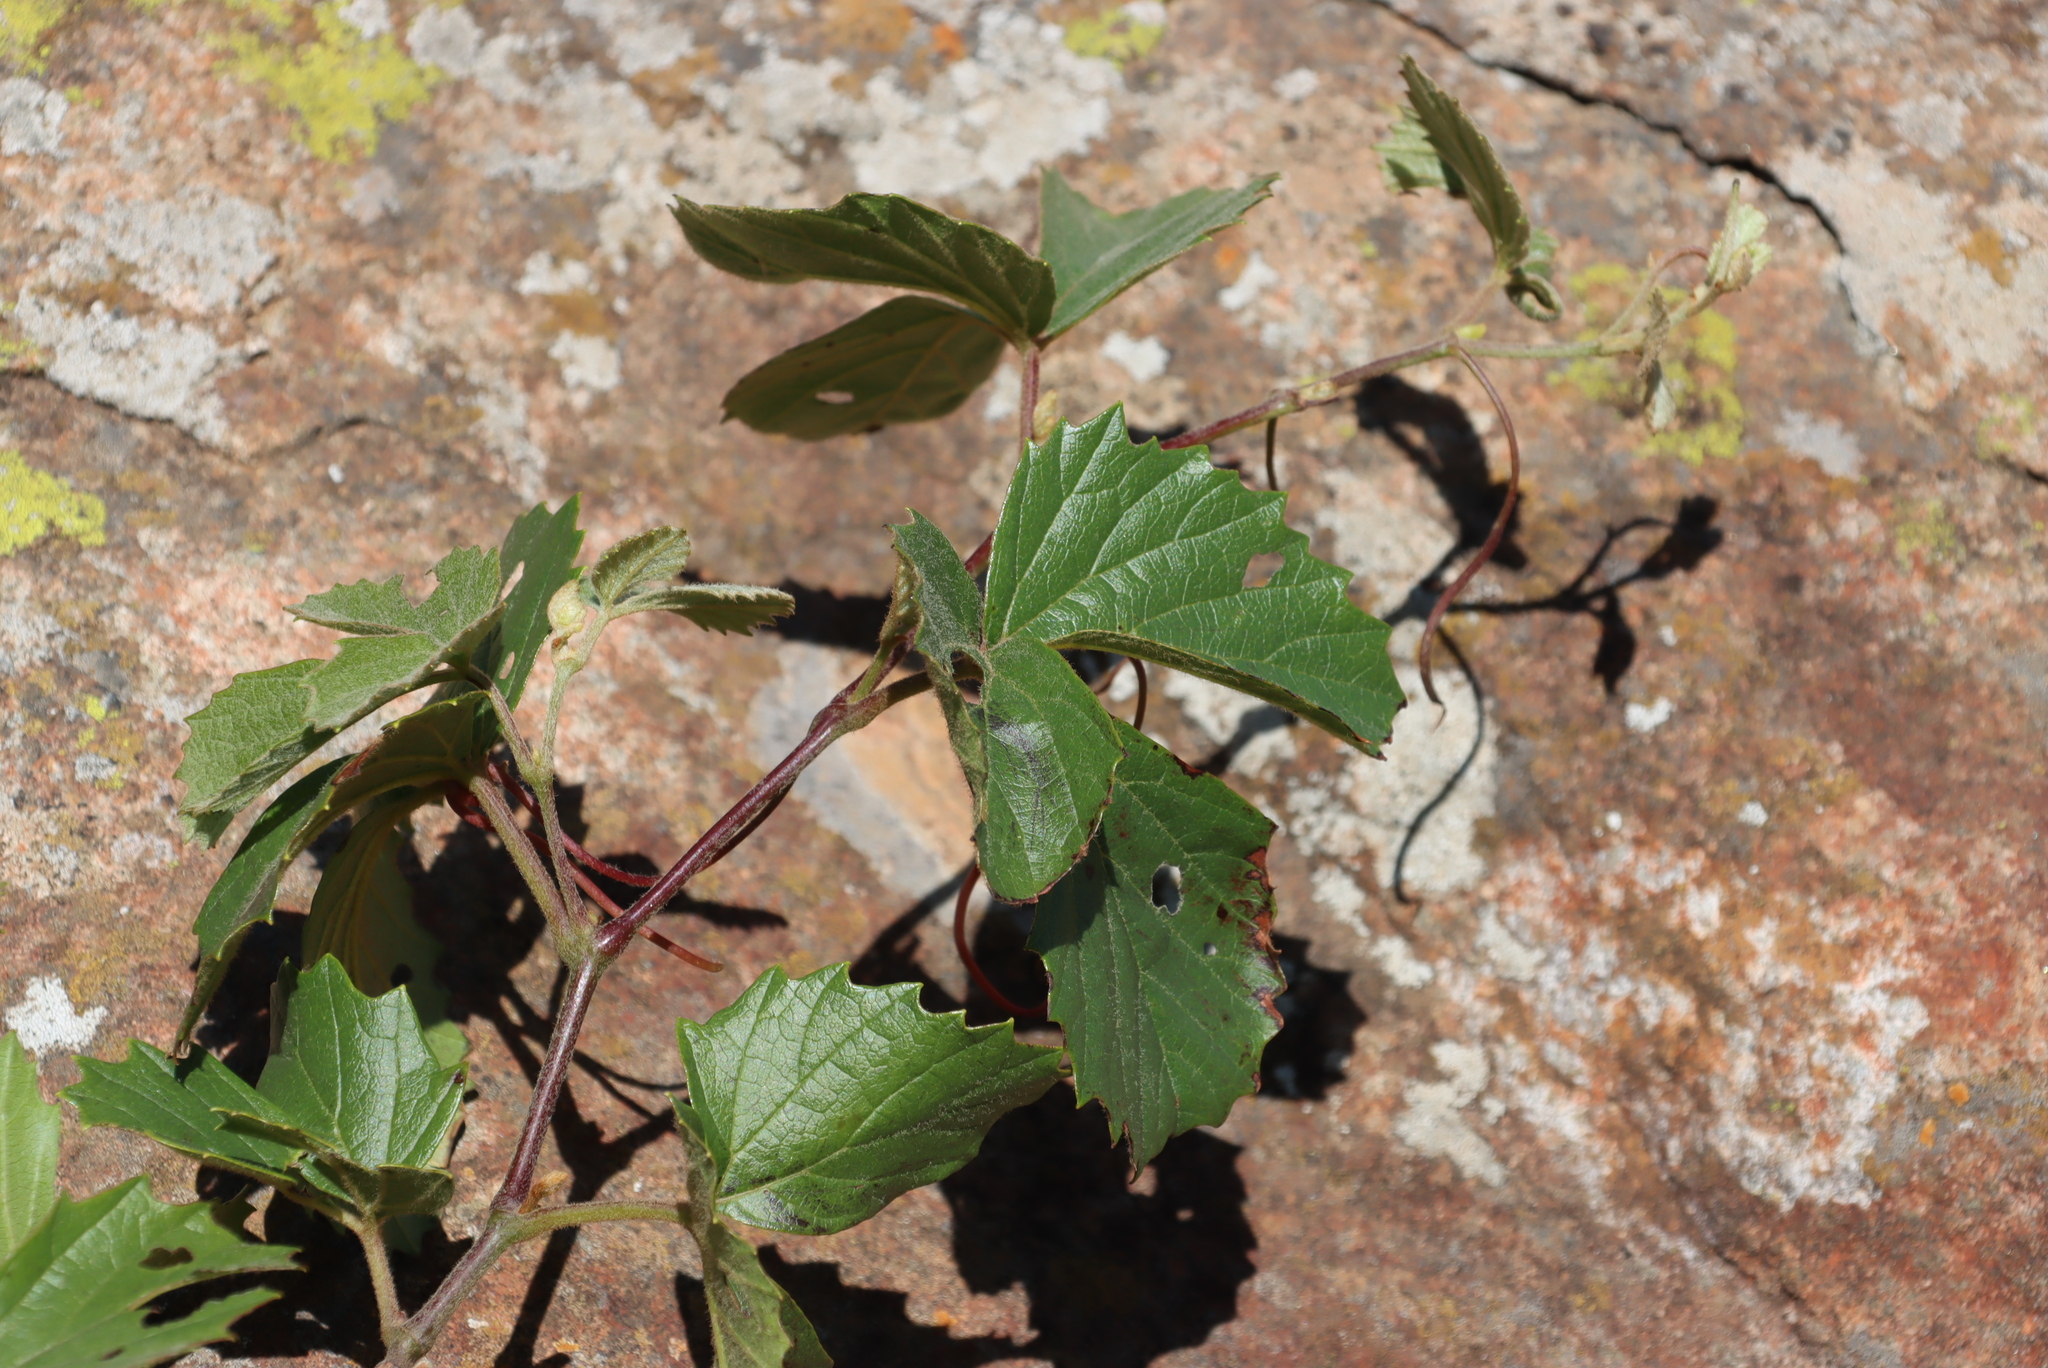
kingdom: Plantae
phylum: Tracheophyta
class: Magnoliopsida
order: Vitales
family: Vitaceae
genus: Rhoicissus
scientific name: Rhoicissus tridentata
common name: Common forest grape
